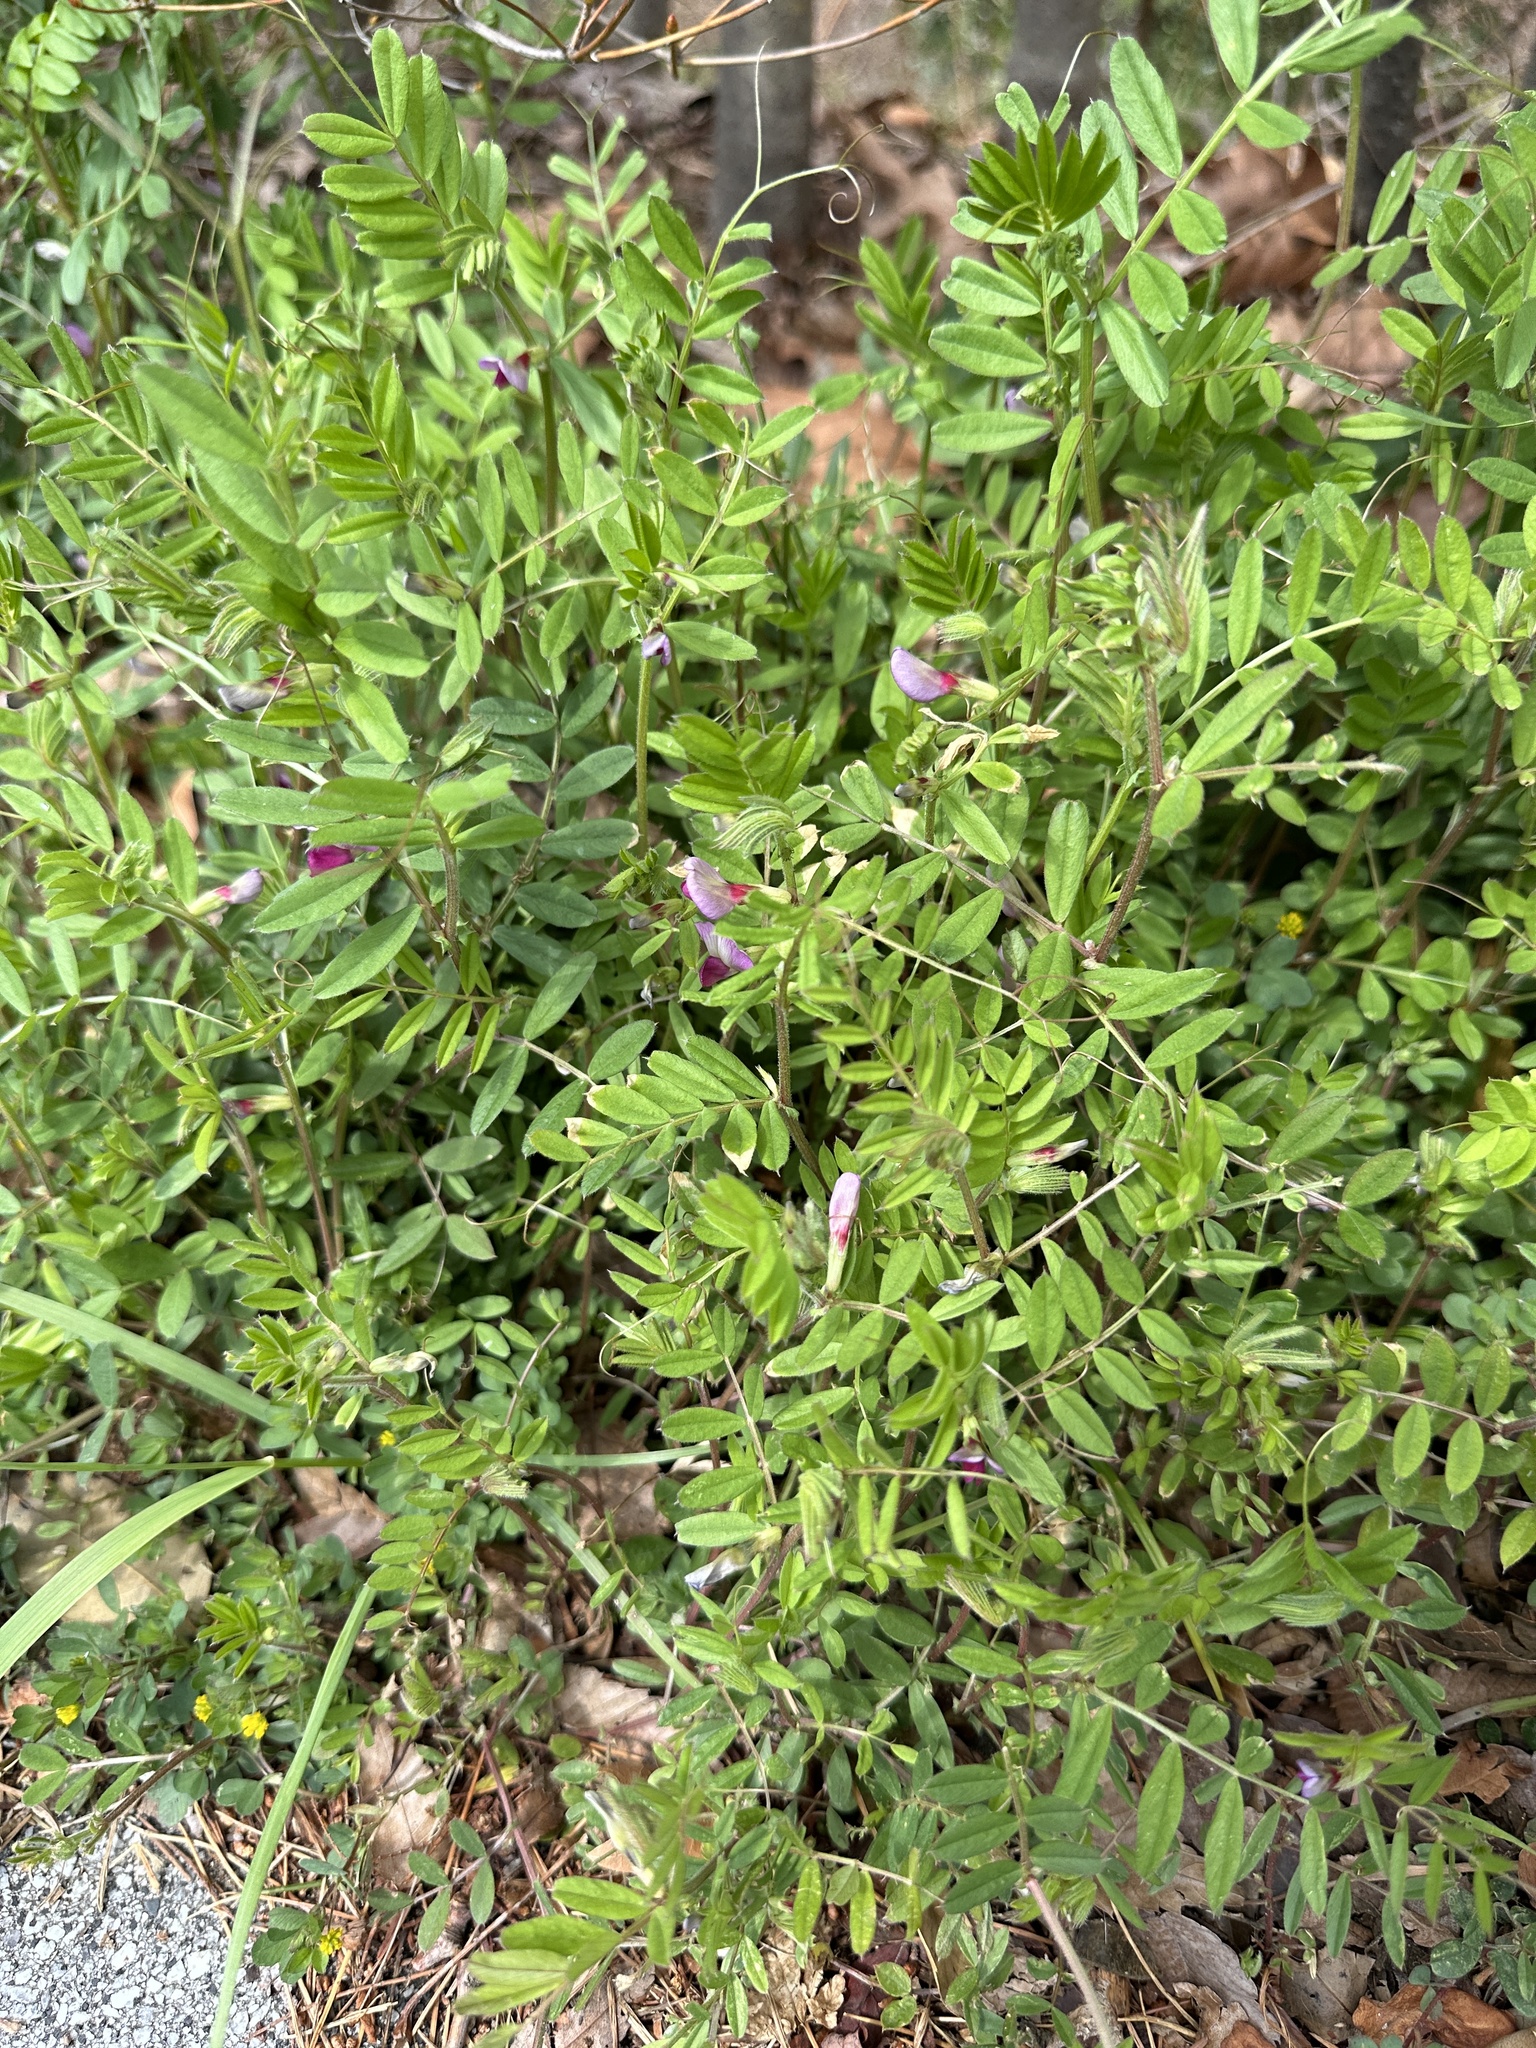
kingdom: Plantae
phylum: Tracheophyta
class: Magnoliopsida
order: Fabales
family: Fabaceae
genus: Vicia
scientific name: Vicia sativa
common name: Garden vetch
